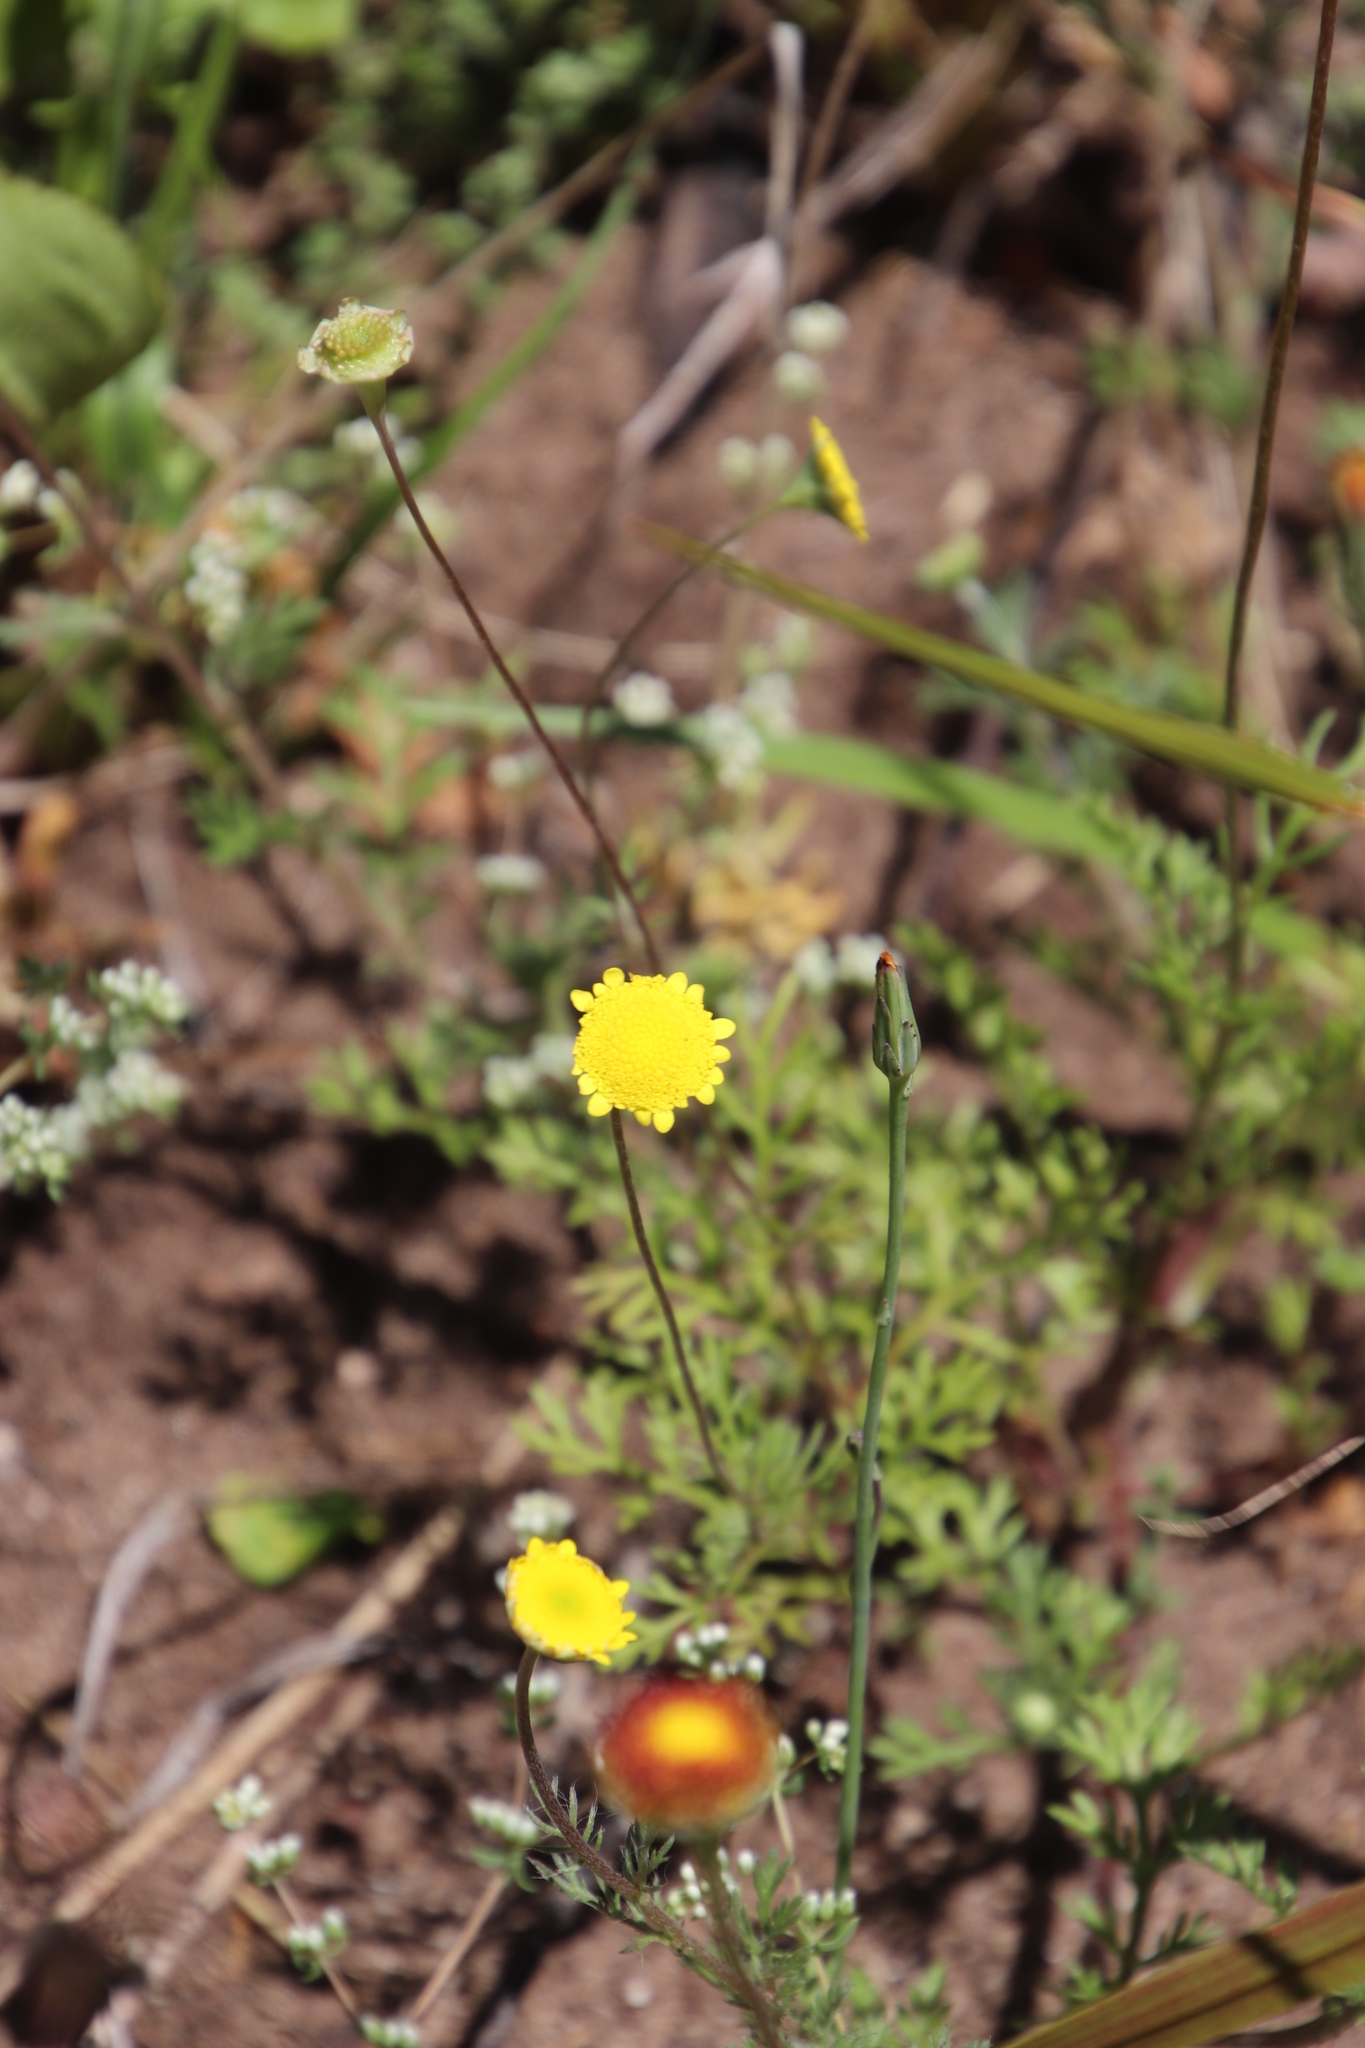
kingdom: Plantae
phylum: Tracheophyta
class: Magnoliopsida
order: Asterales
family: Asteraceae
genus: Cotula
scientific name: Cotula pruinosa
